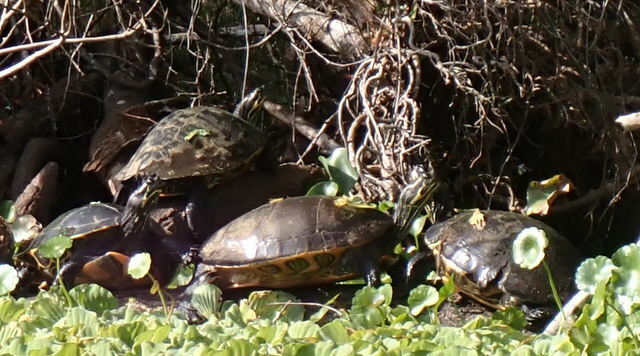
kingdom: Animalia
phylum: Chordata
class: Testudines
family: Emydidae
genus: Pseudemys
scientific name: Pseudemys concinna
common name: Eastern river cooter
